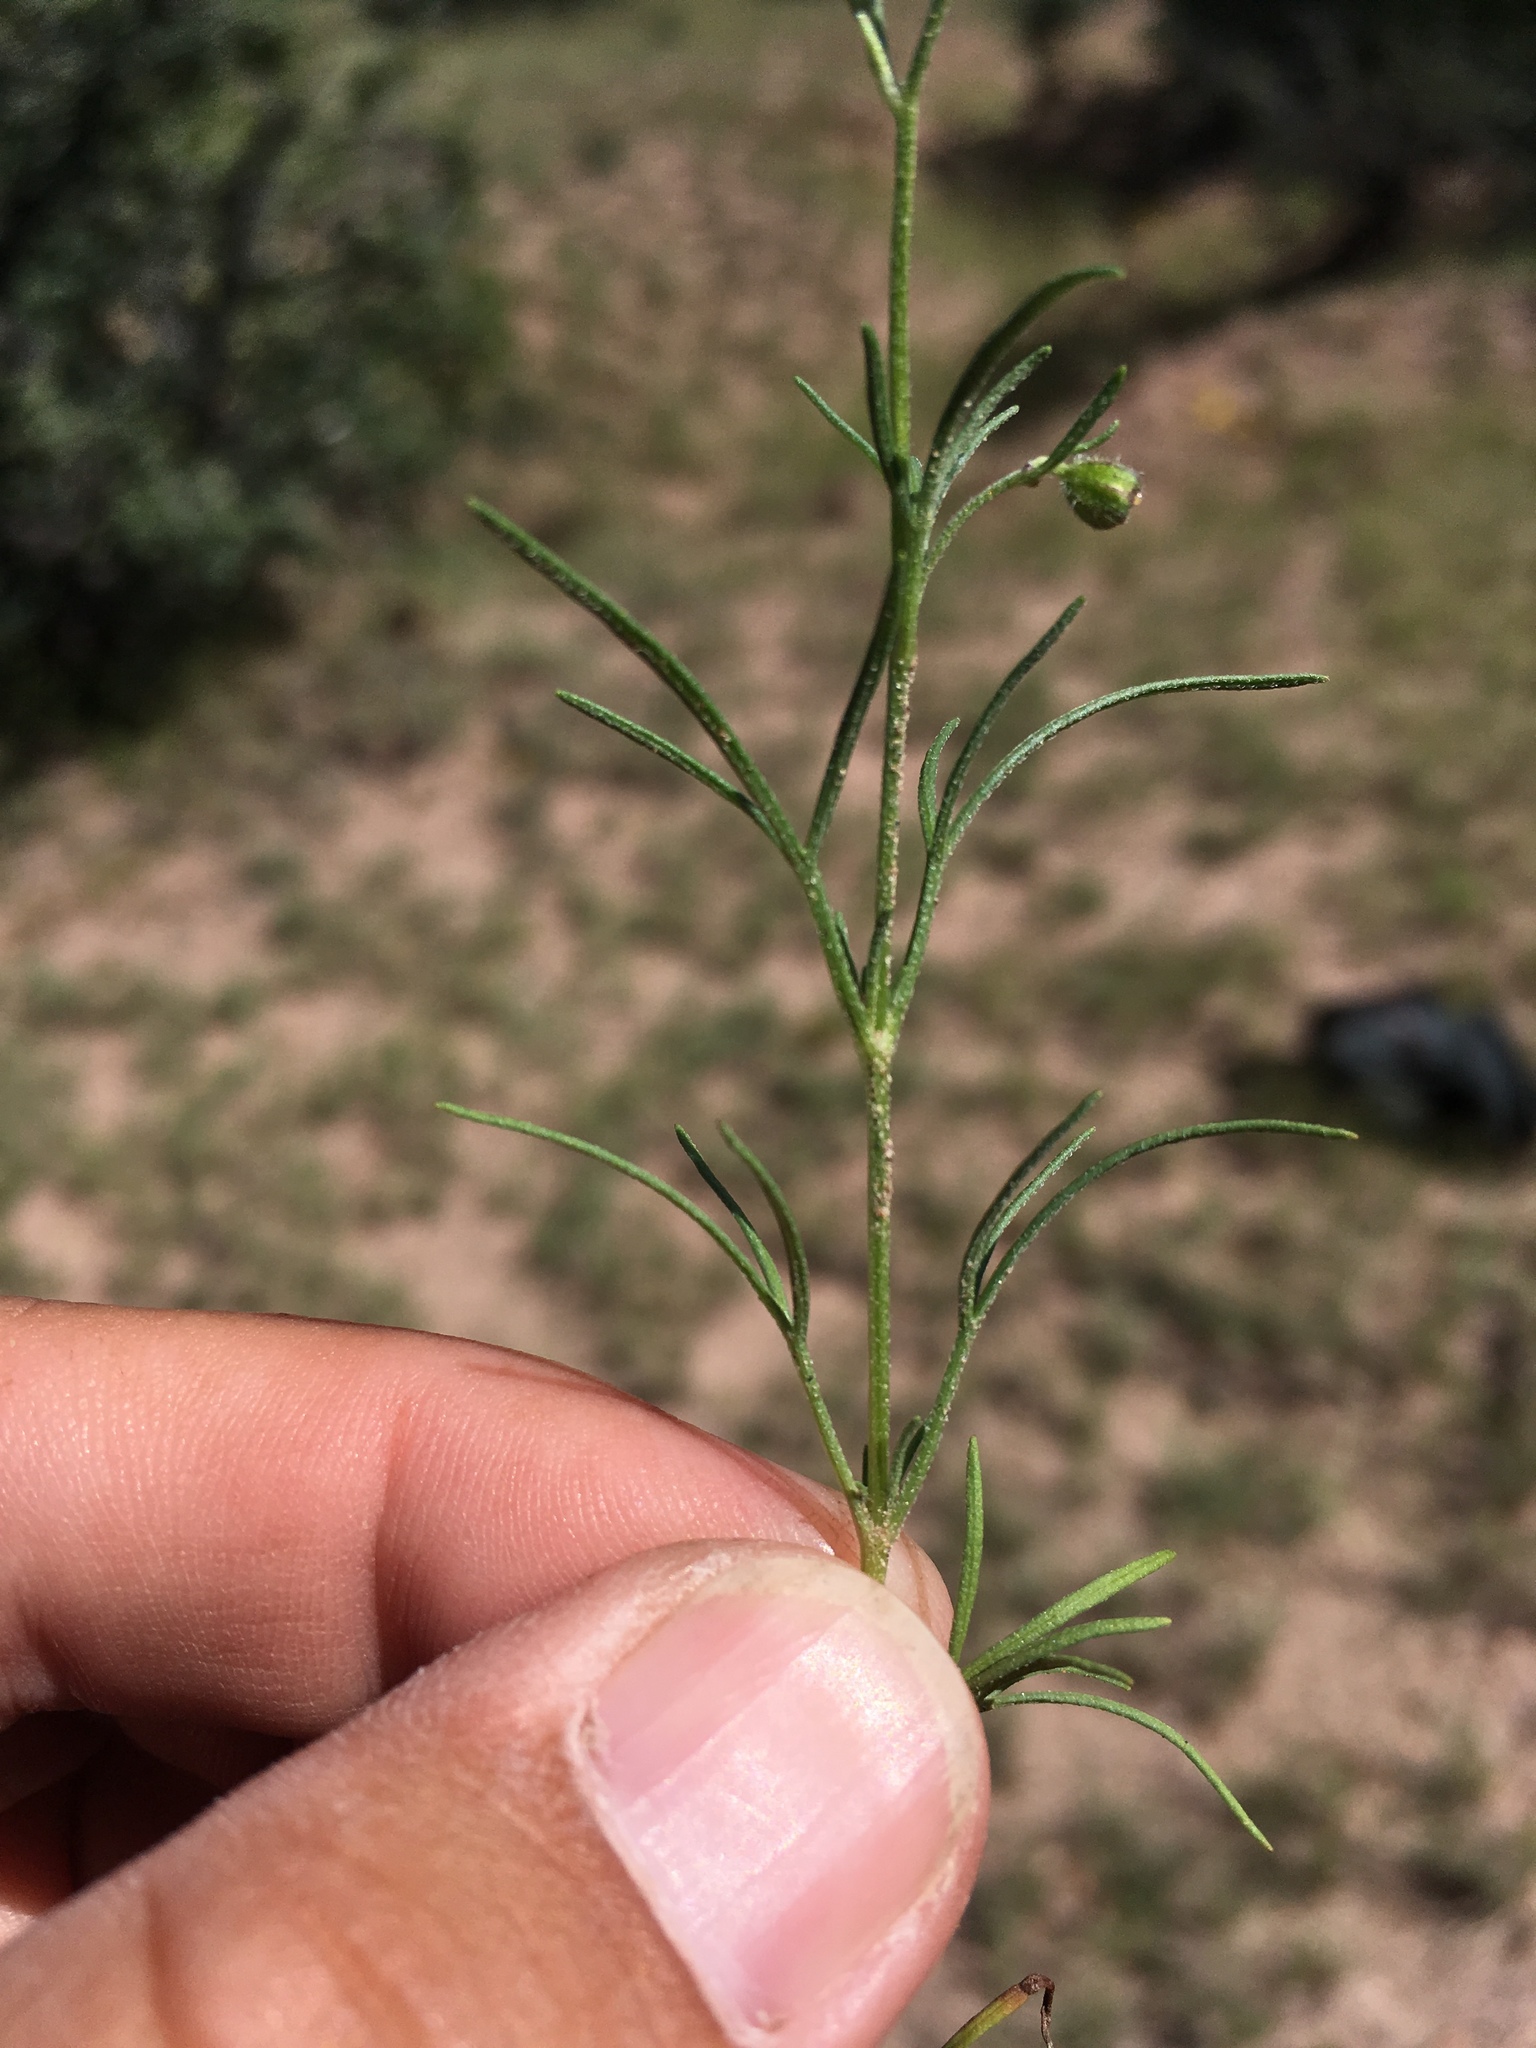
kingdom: Plantae
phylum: Tracheophyta
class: Magnoliopsida
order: Asterales
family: Asteraceae
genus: Picradeniopsis
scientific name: Picradeniopsis multiflora
